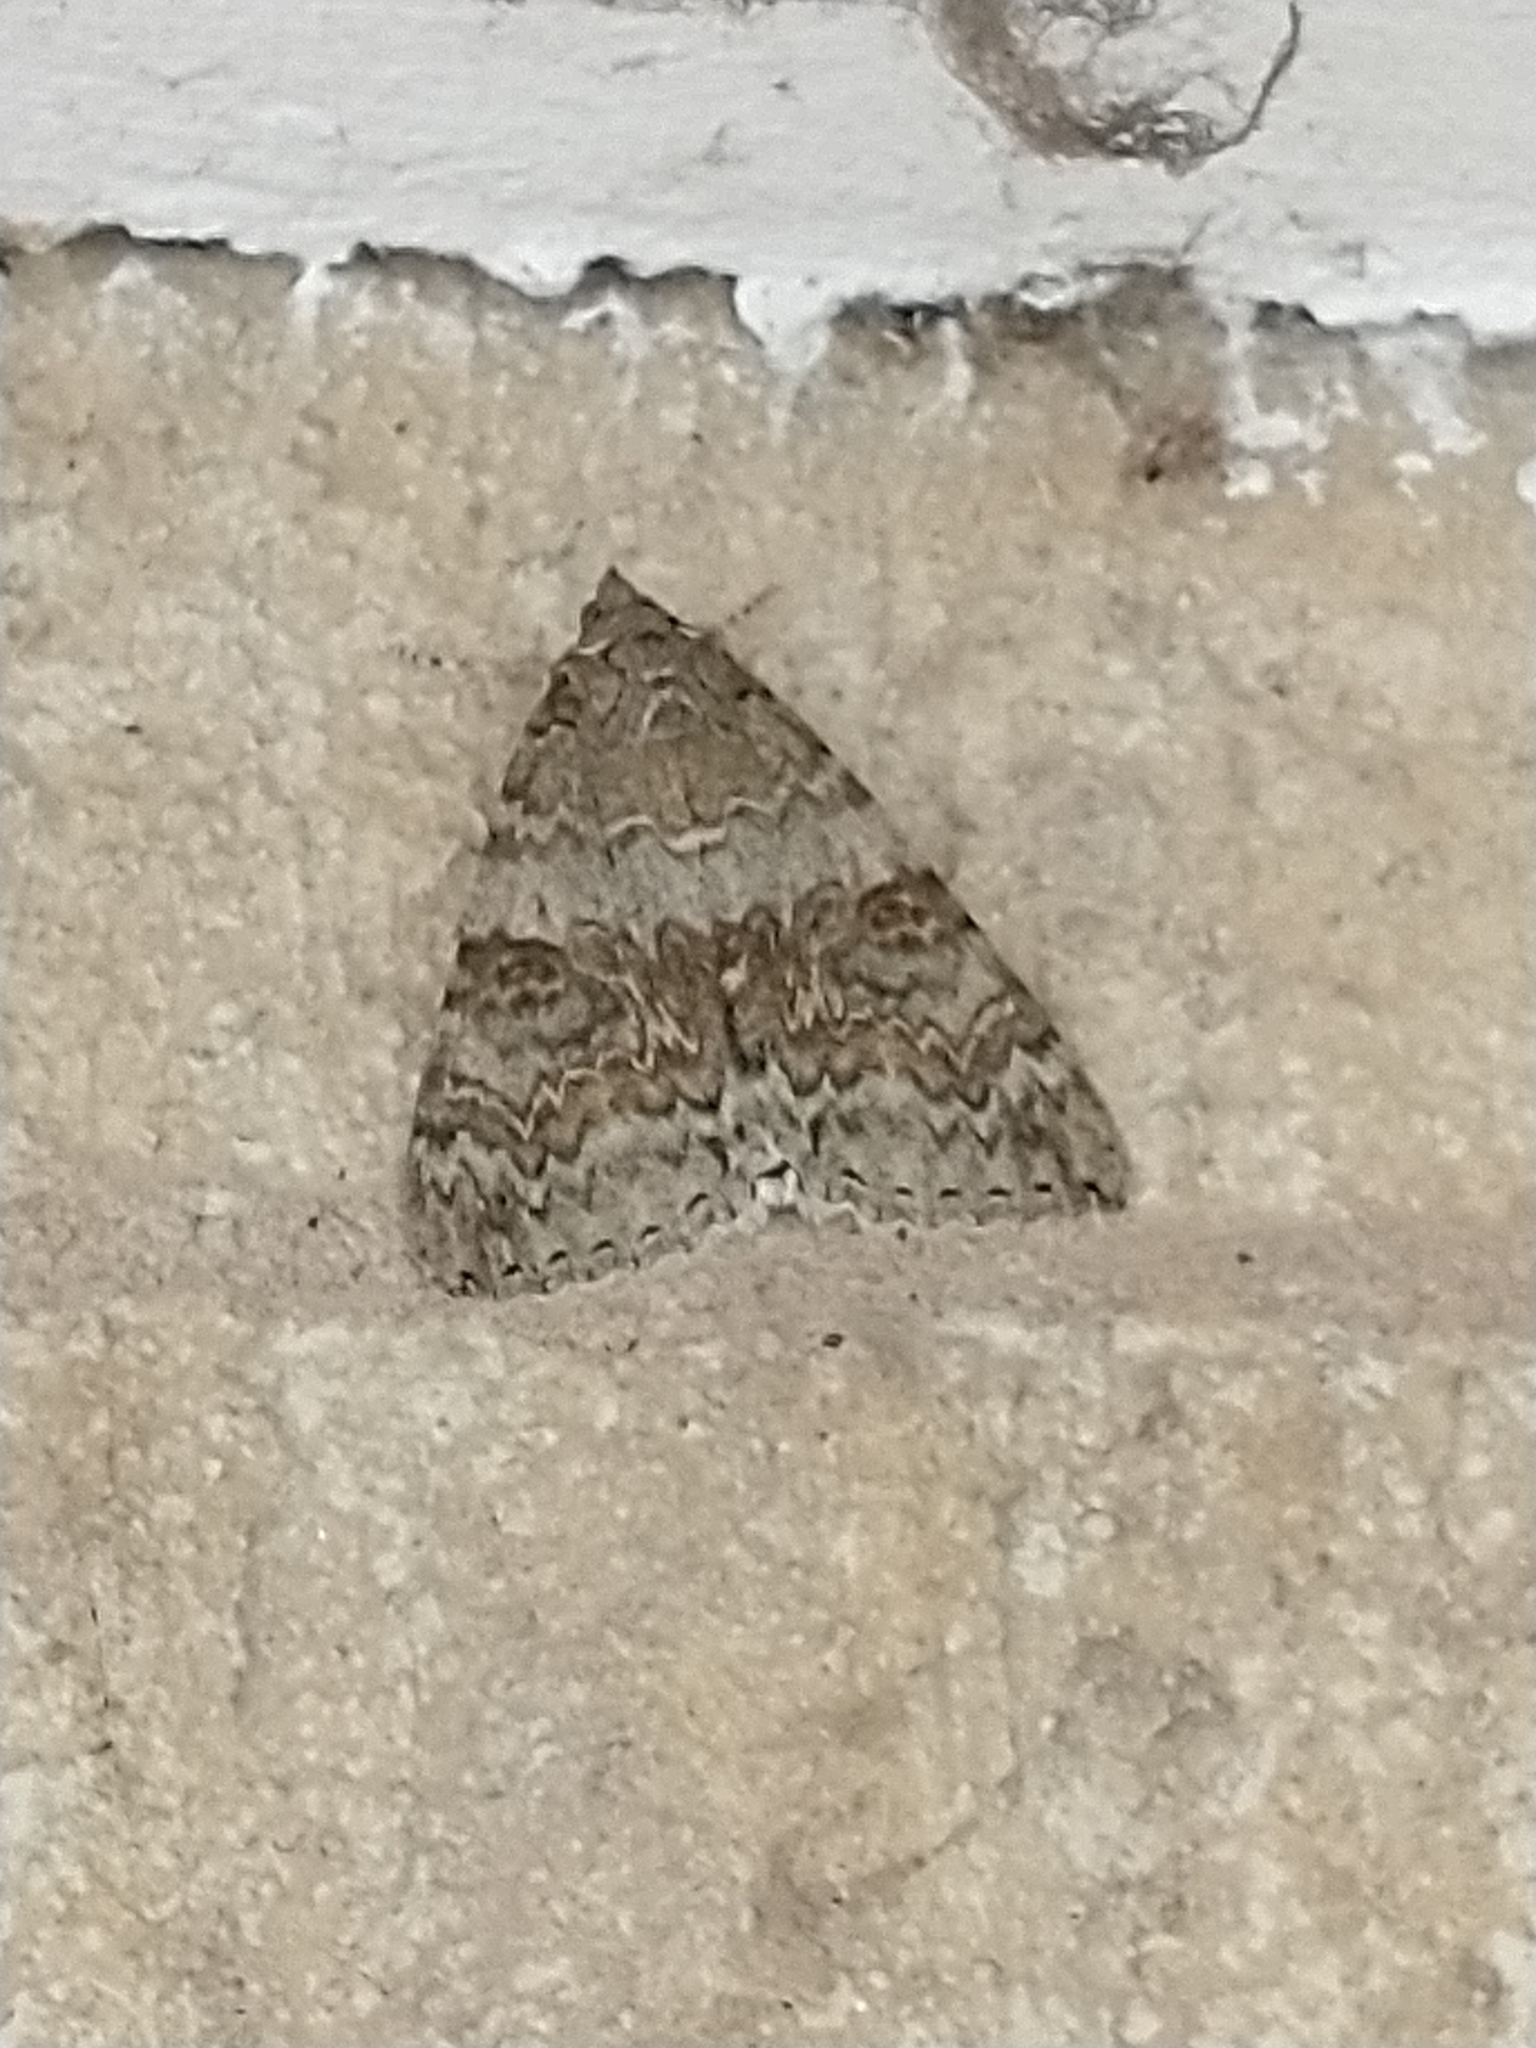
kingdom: Animalia
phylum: Arthropoda
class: Insecta
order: Lepidoptera
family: Erebidae
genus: Catocala
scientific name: Catocala nupta
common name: Red underwing
